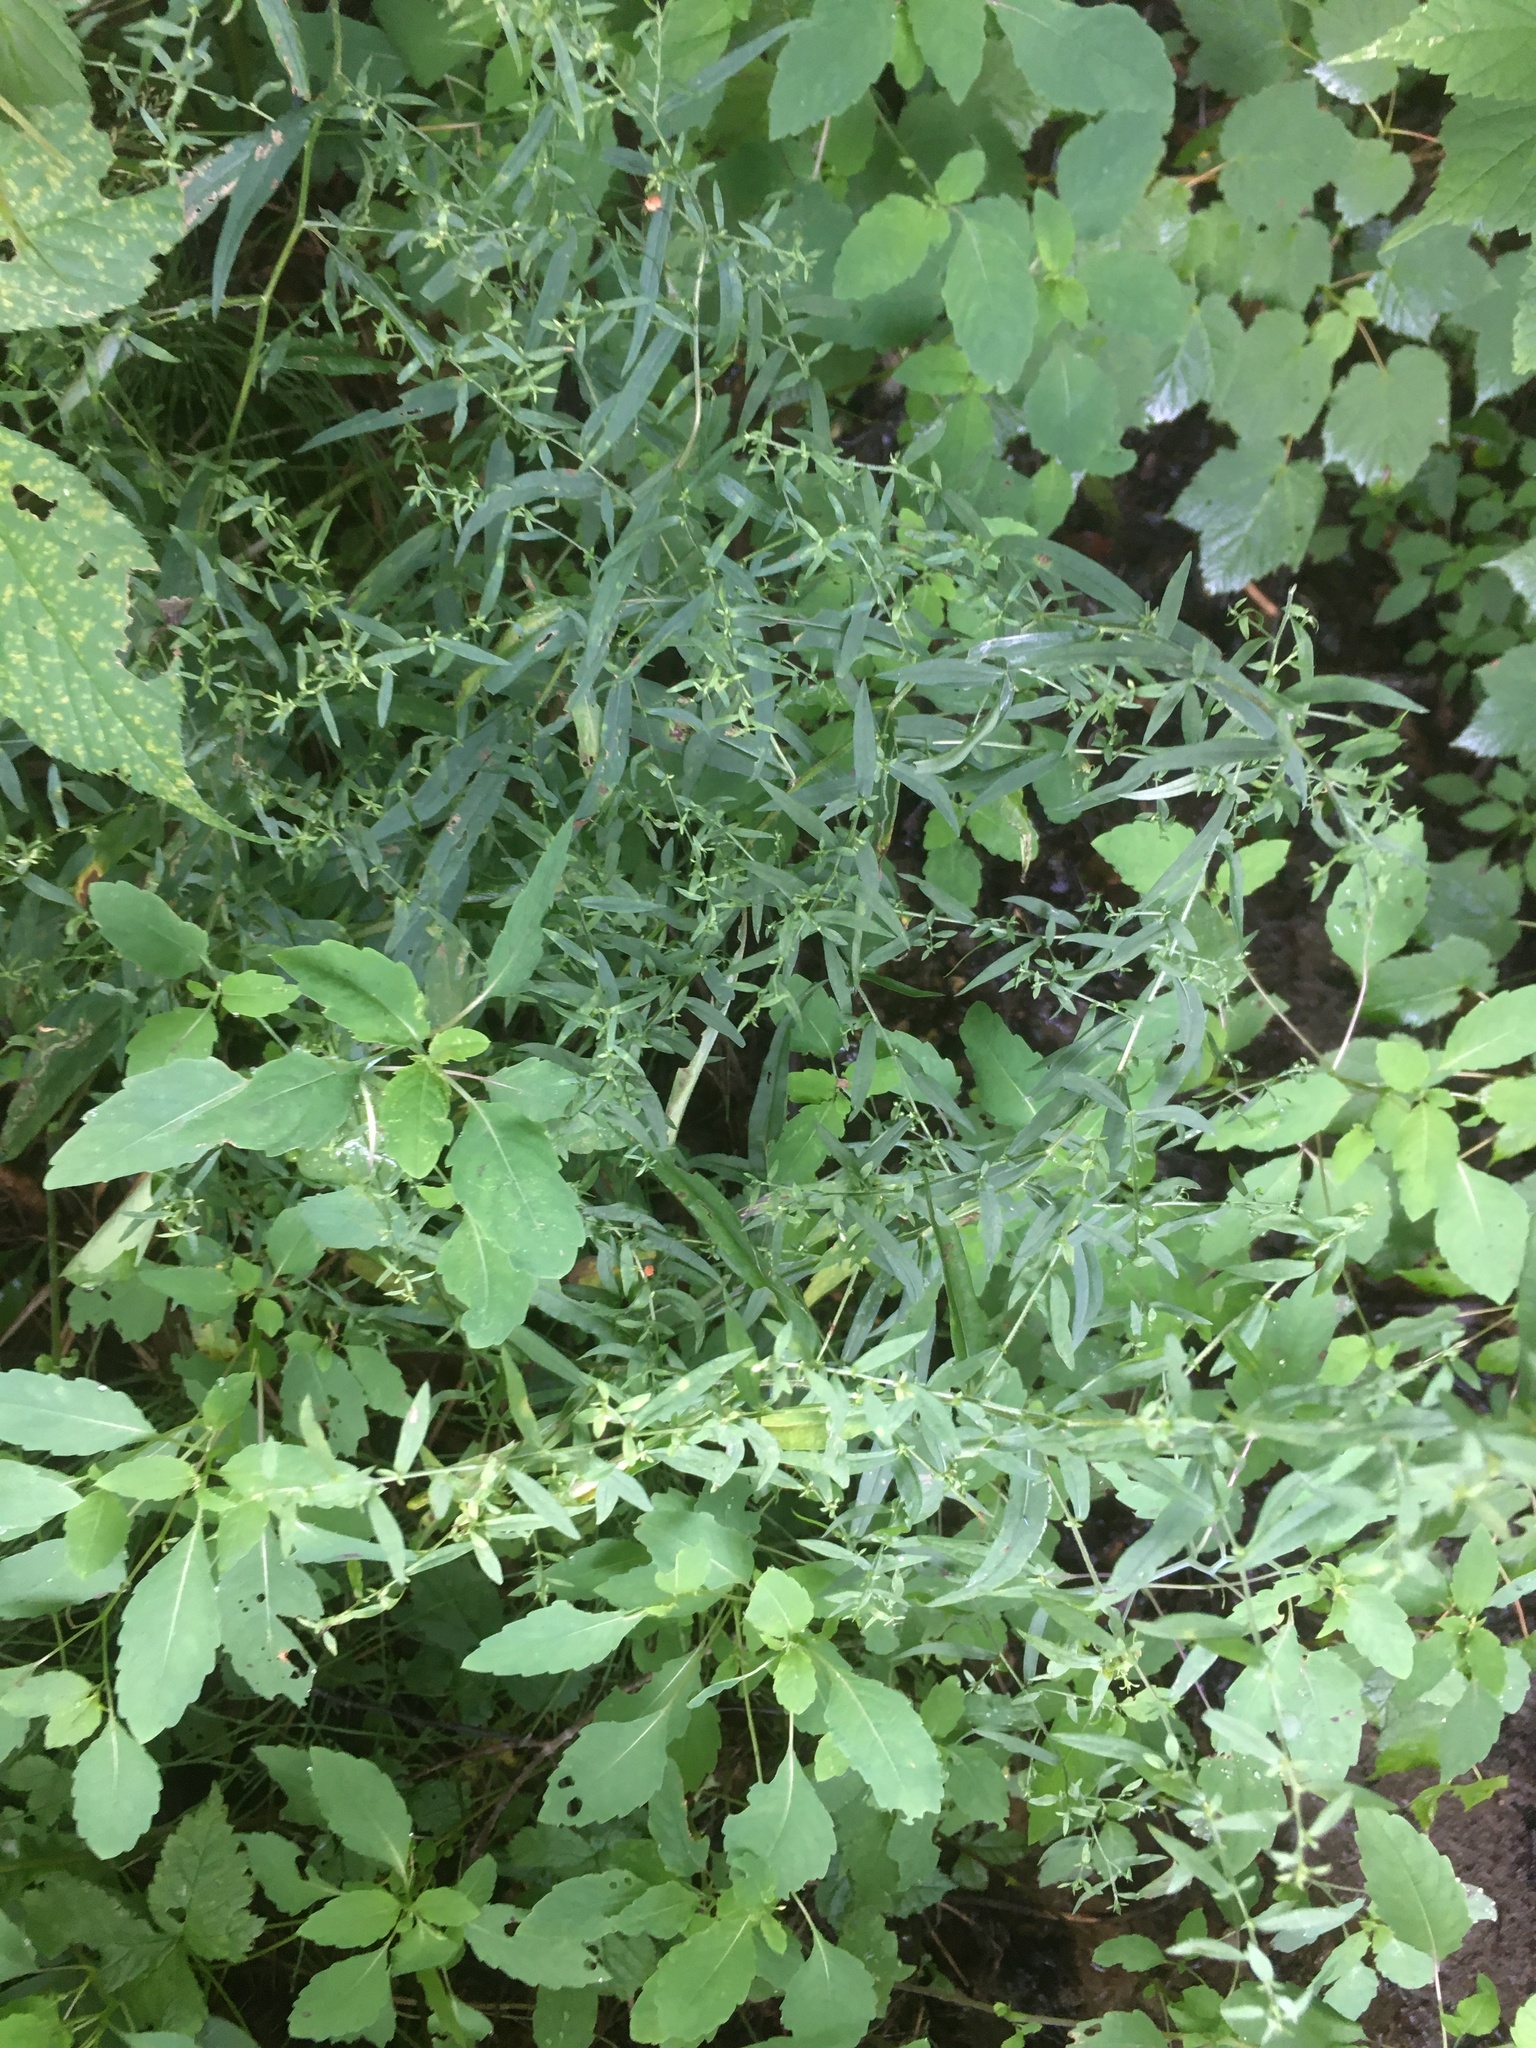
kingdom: Plantae
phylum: Tracheophyta
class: Magnoliopsida
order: Asterales
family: Asteraceae
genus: Symphyotrichum
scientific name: Symphyotrichum lateriflorum
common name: Calico aster
